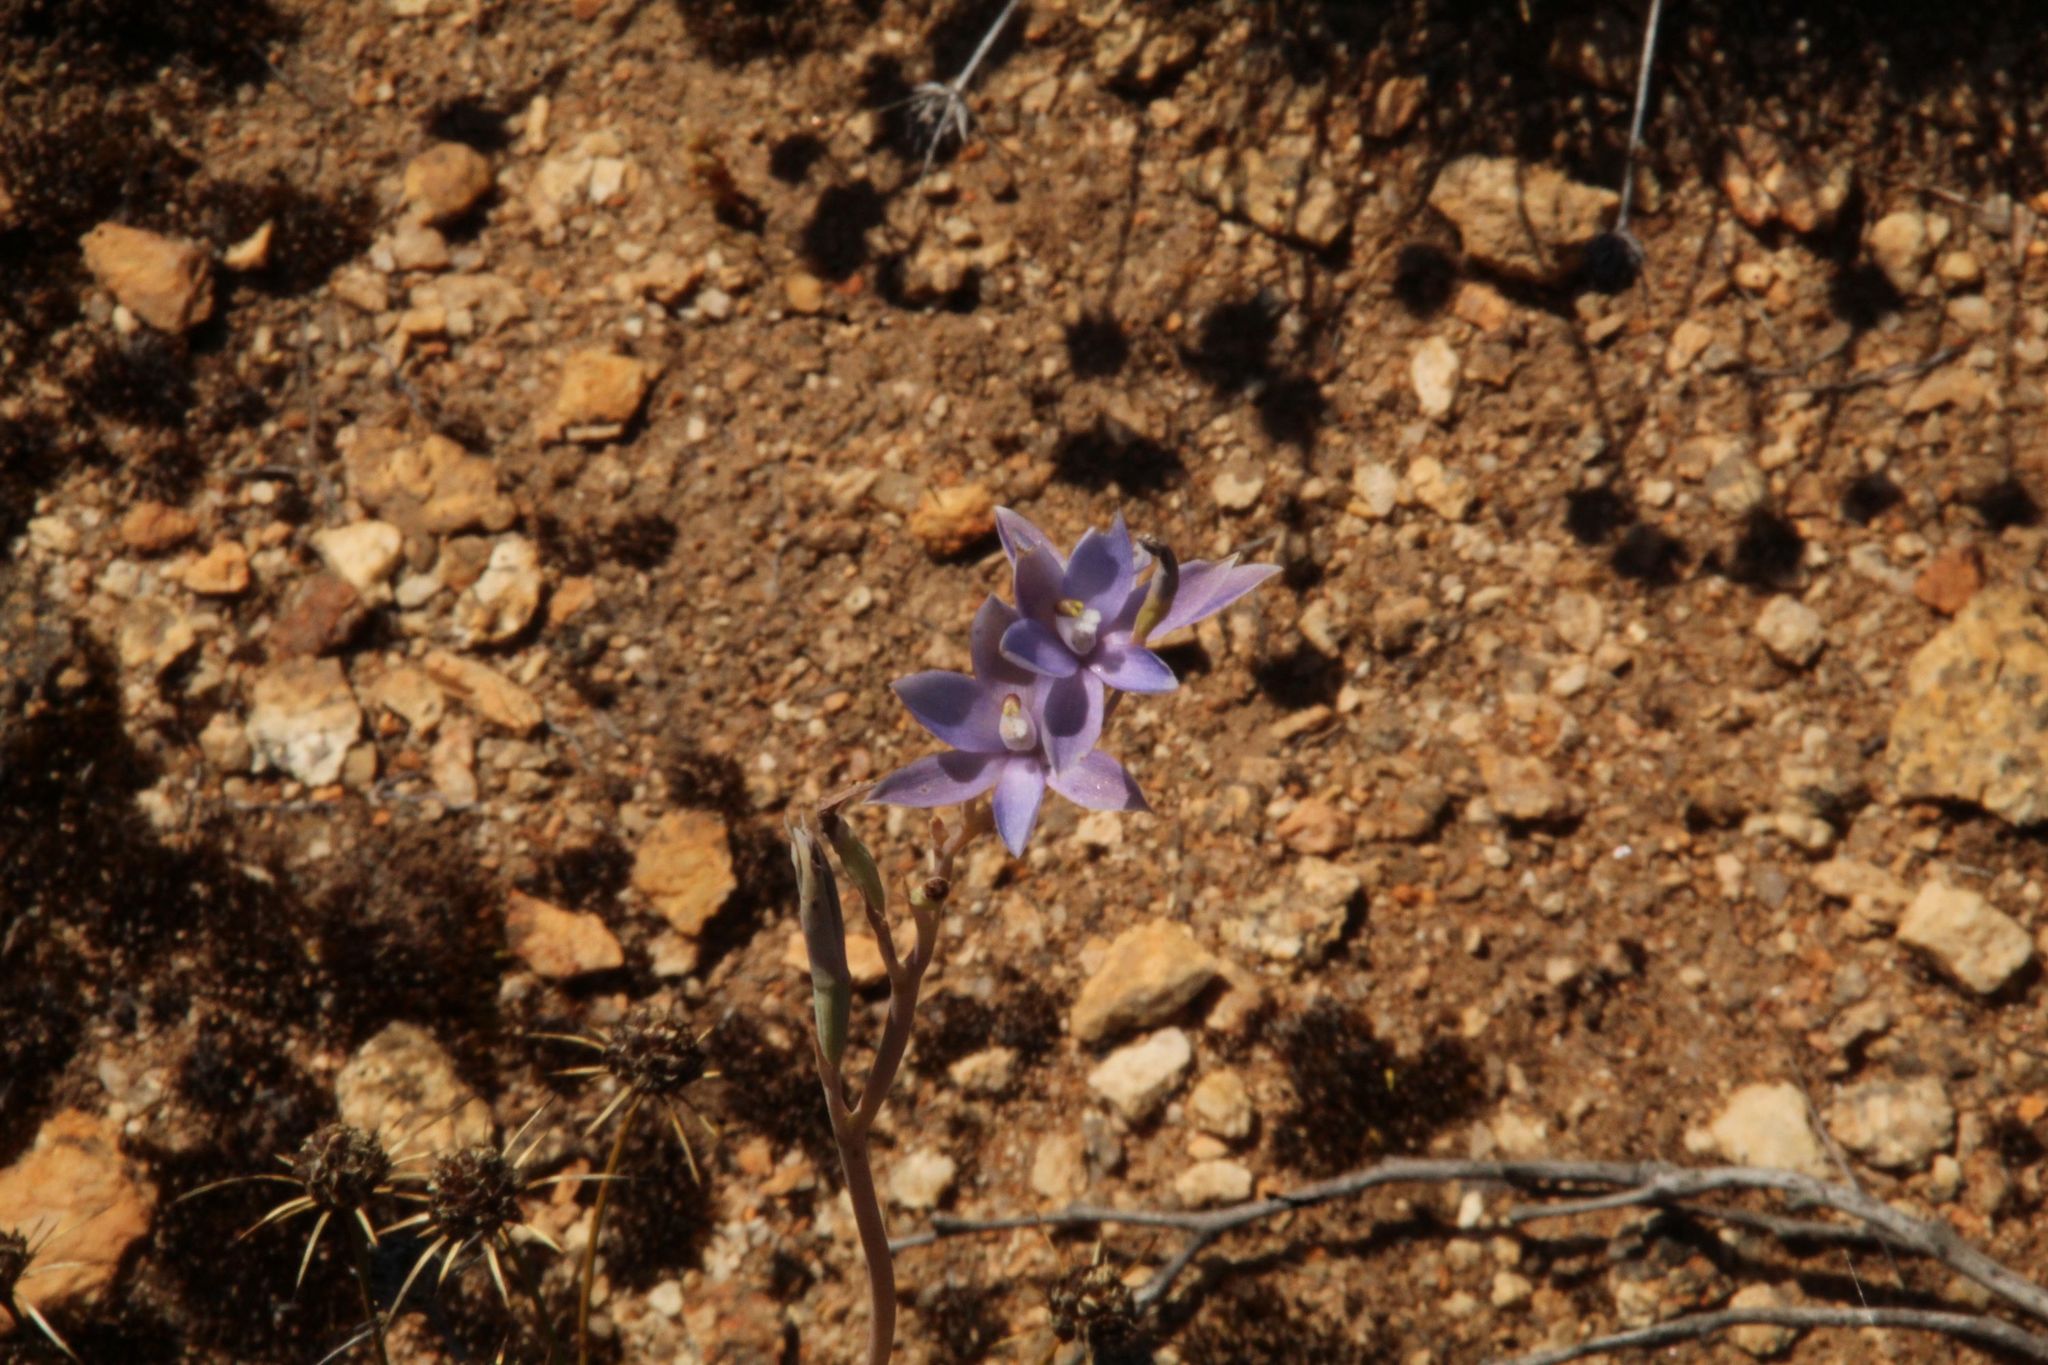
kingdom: Plantae
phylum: Tracheophyta
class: Liliopsida
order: Asparagales
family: Orchidaceae
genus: Thelymitra
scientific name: Thelymitra petrophila
